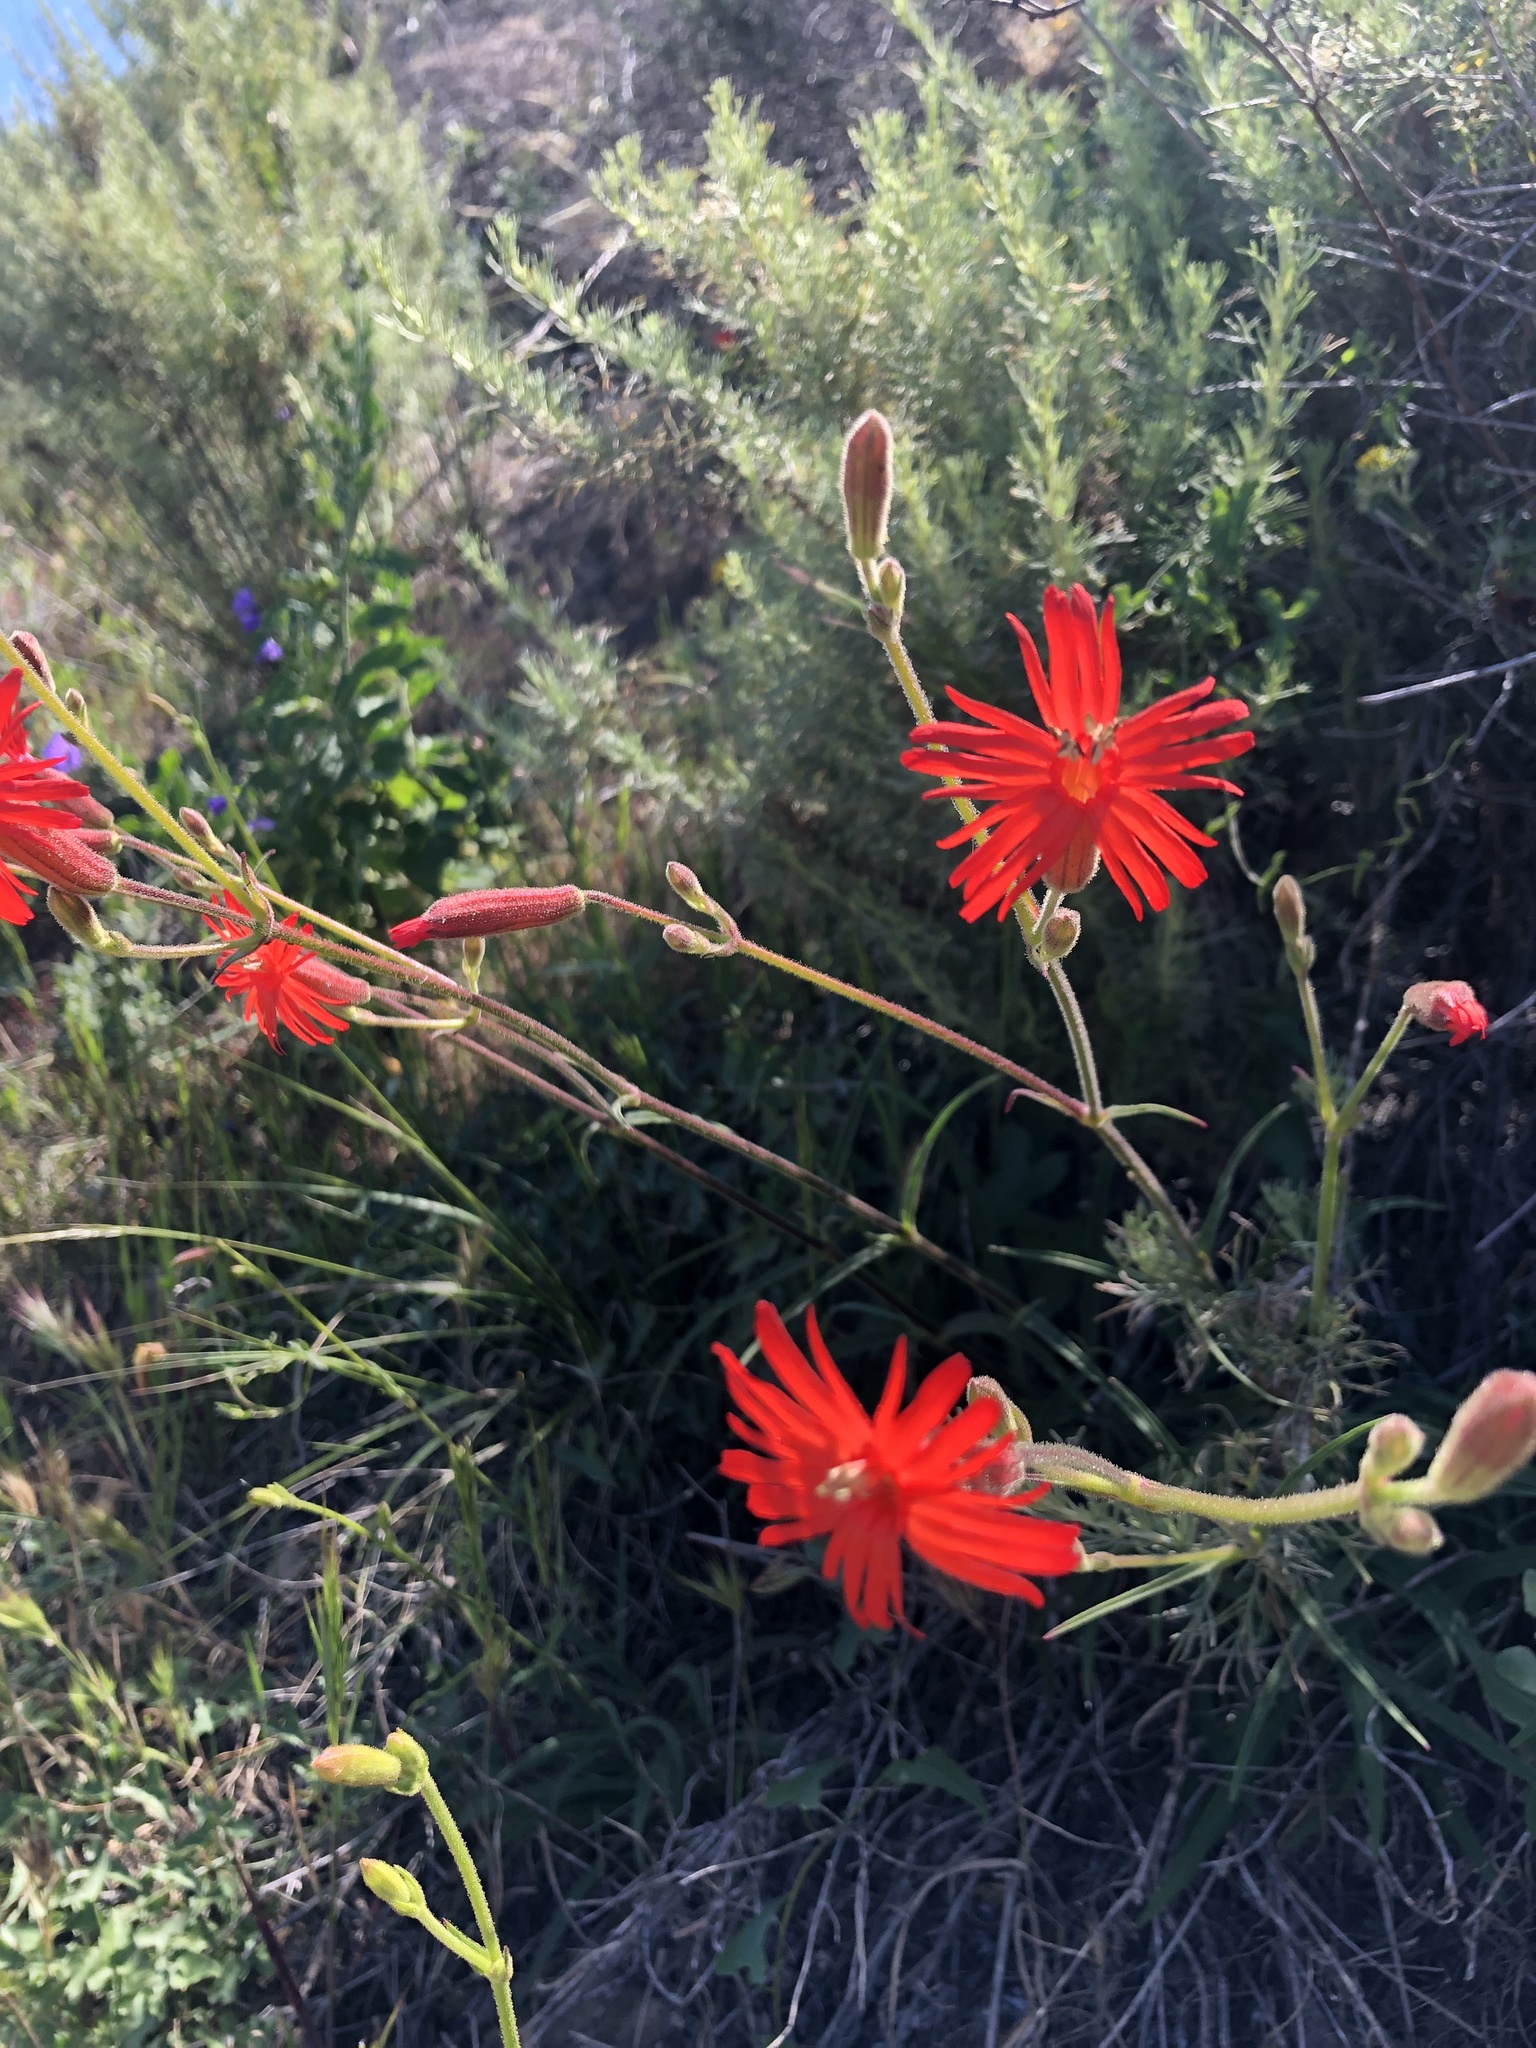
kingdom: Plantae
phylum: Tracheophyta
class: Magnoliopsida
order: Caryophyllales
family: Caryophyllaceae
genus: Silene
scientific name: Silene laciniata
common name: Indian-pink
